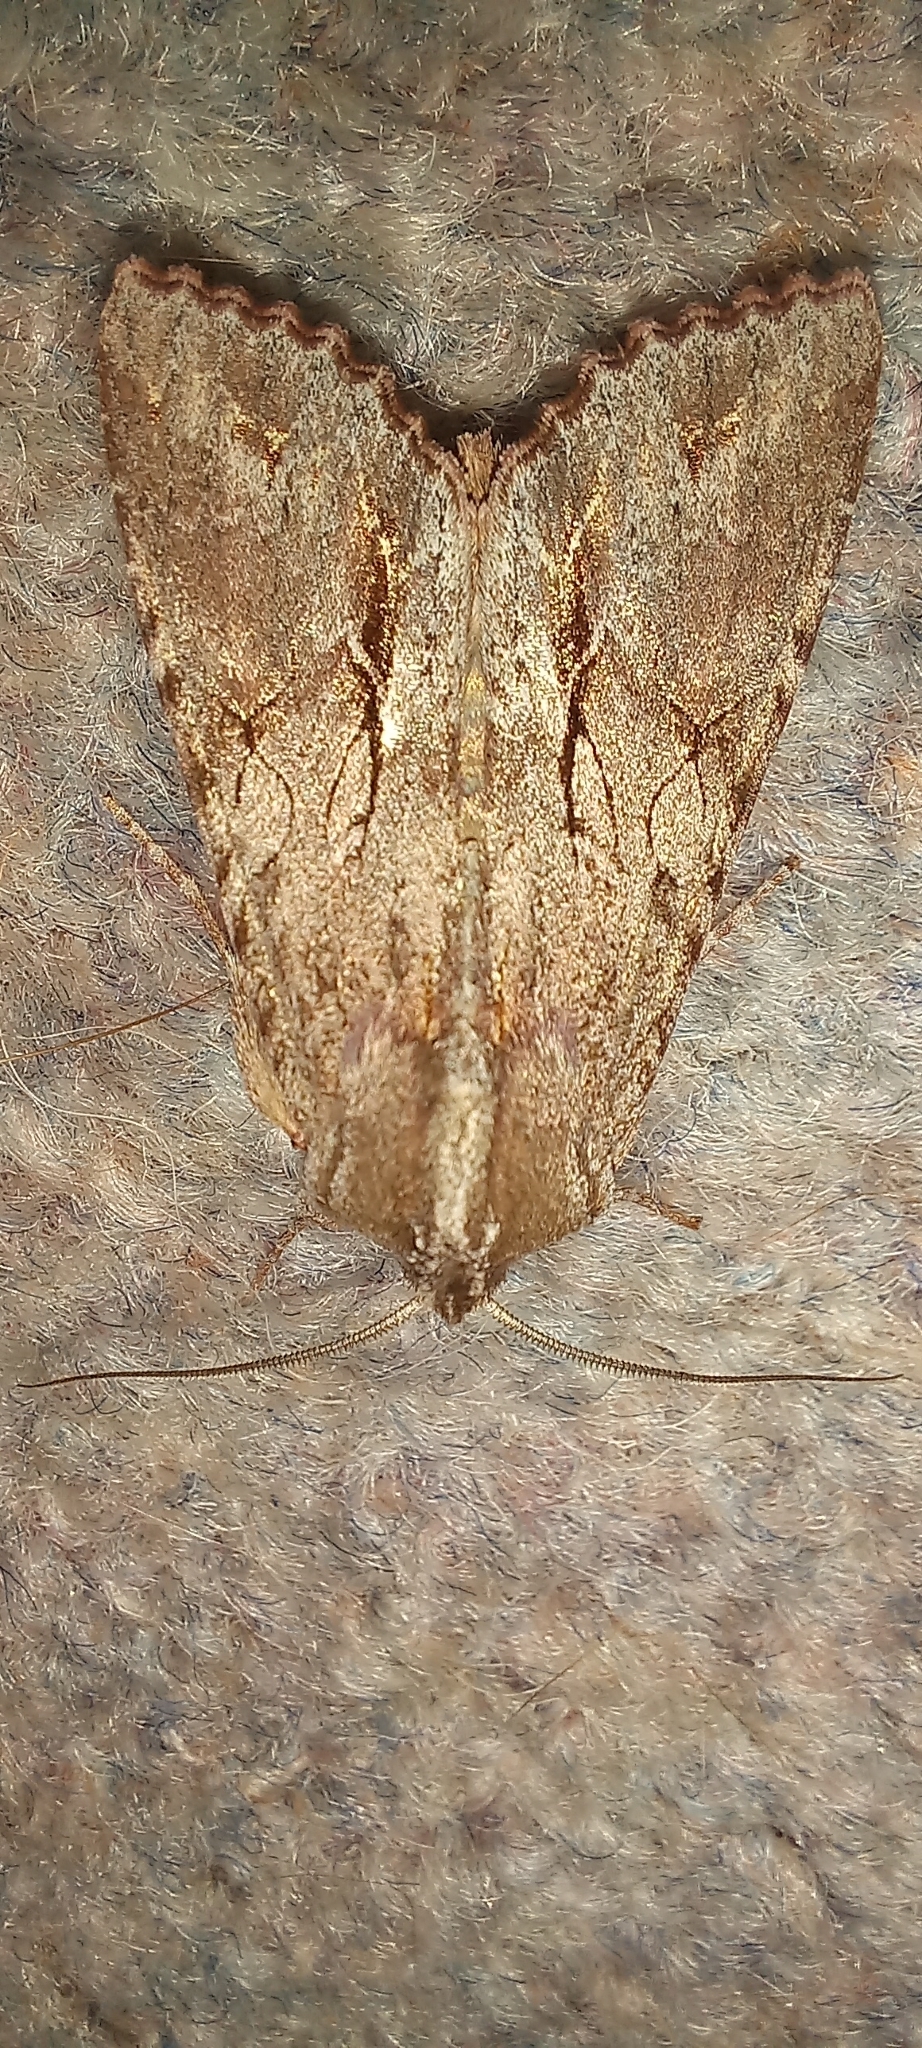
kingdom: Animalia
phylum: Arthropoda
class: Insecta
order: Lepidoptera
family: Noctuidae
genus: Ichneutica
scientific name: Ichneutica
